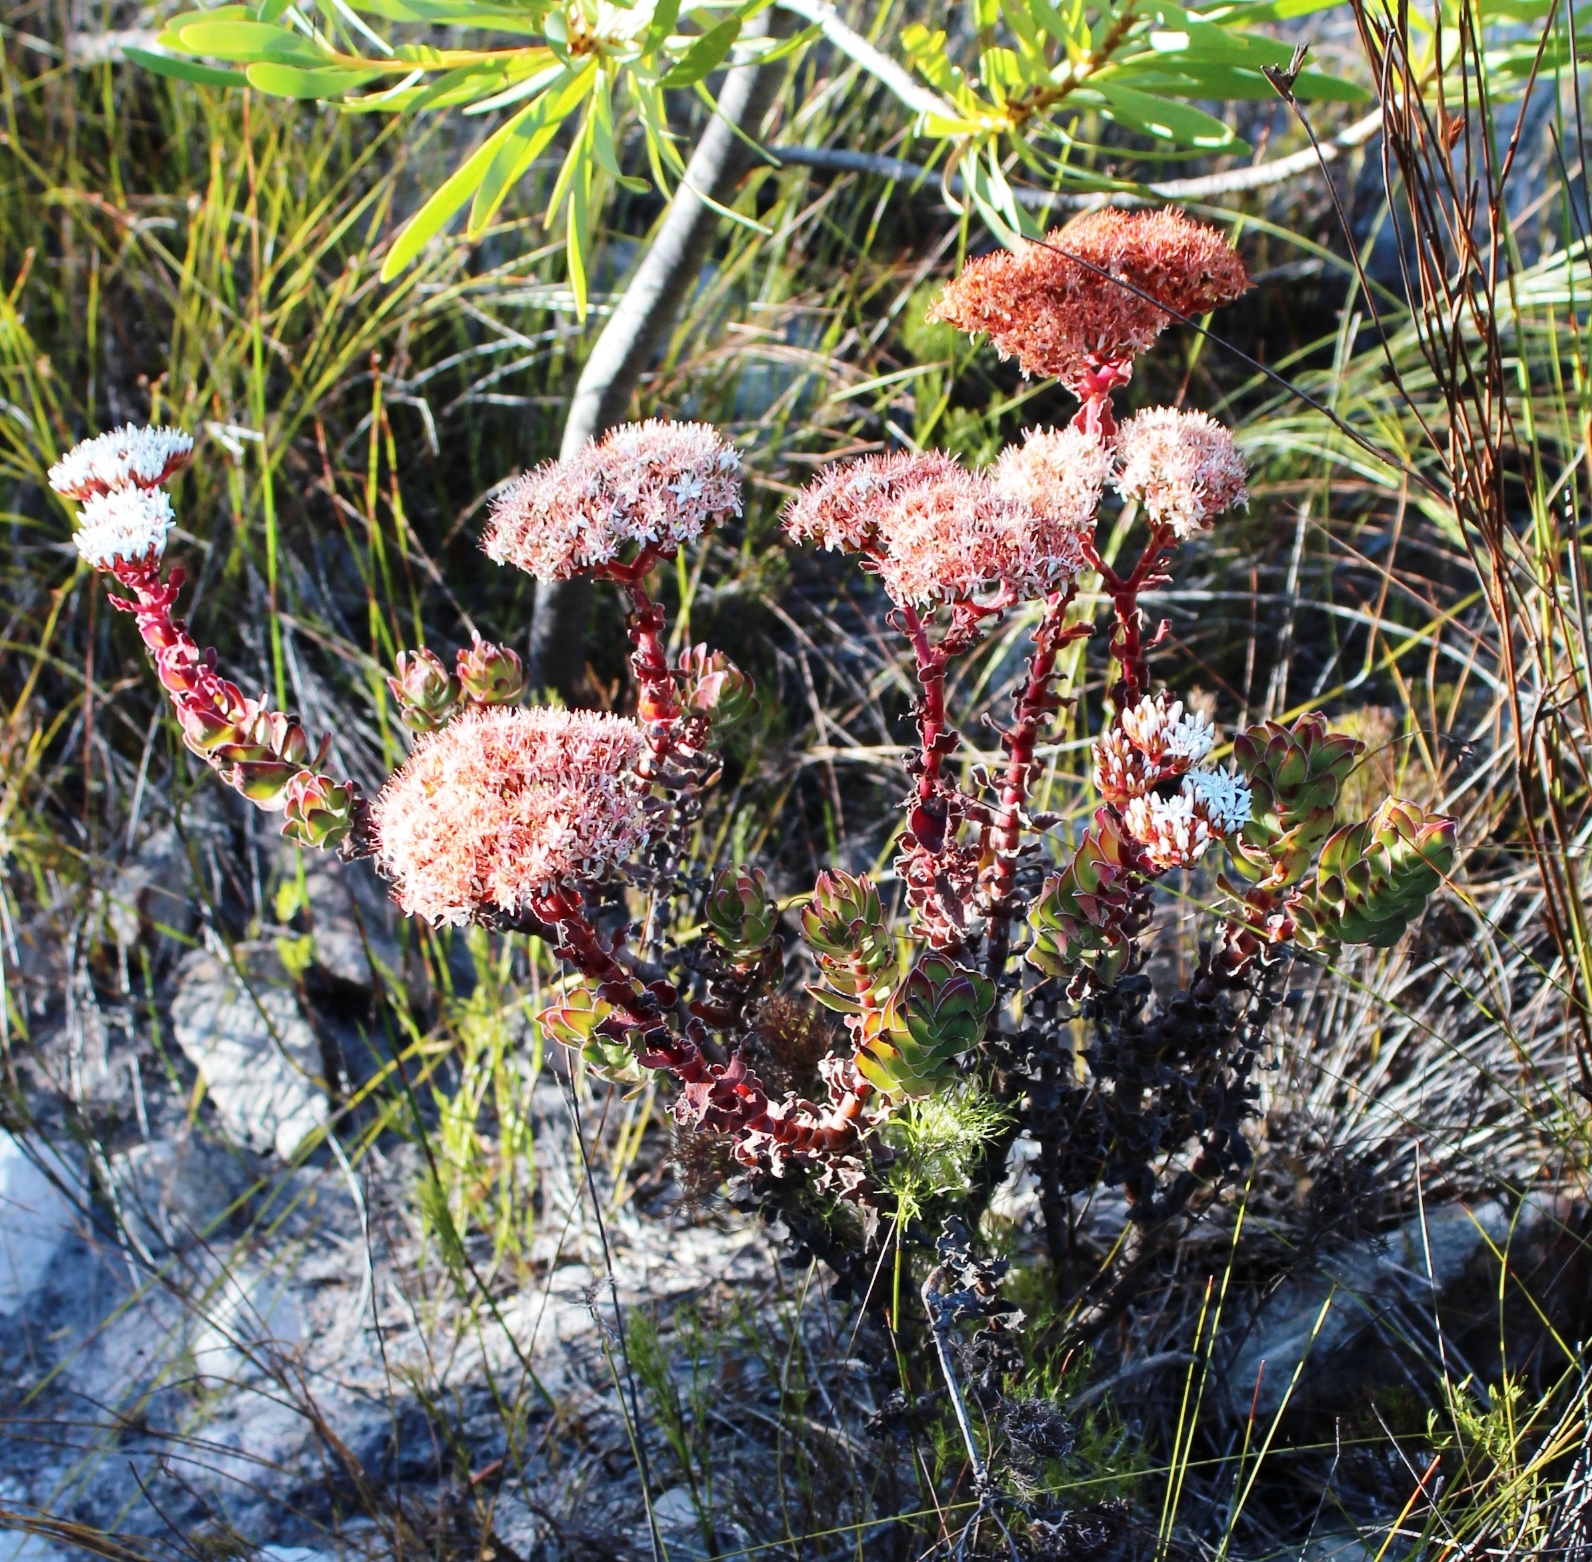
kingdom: Plantae
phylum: Tracheophyta
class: Magnoliopsida
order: Saxifragales
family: Crassulaceae
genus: Crassula
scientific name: Crassula undulata
